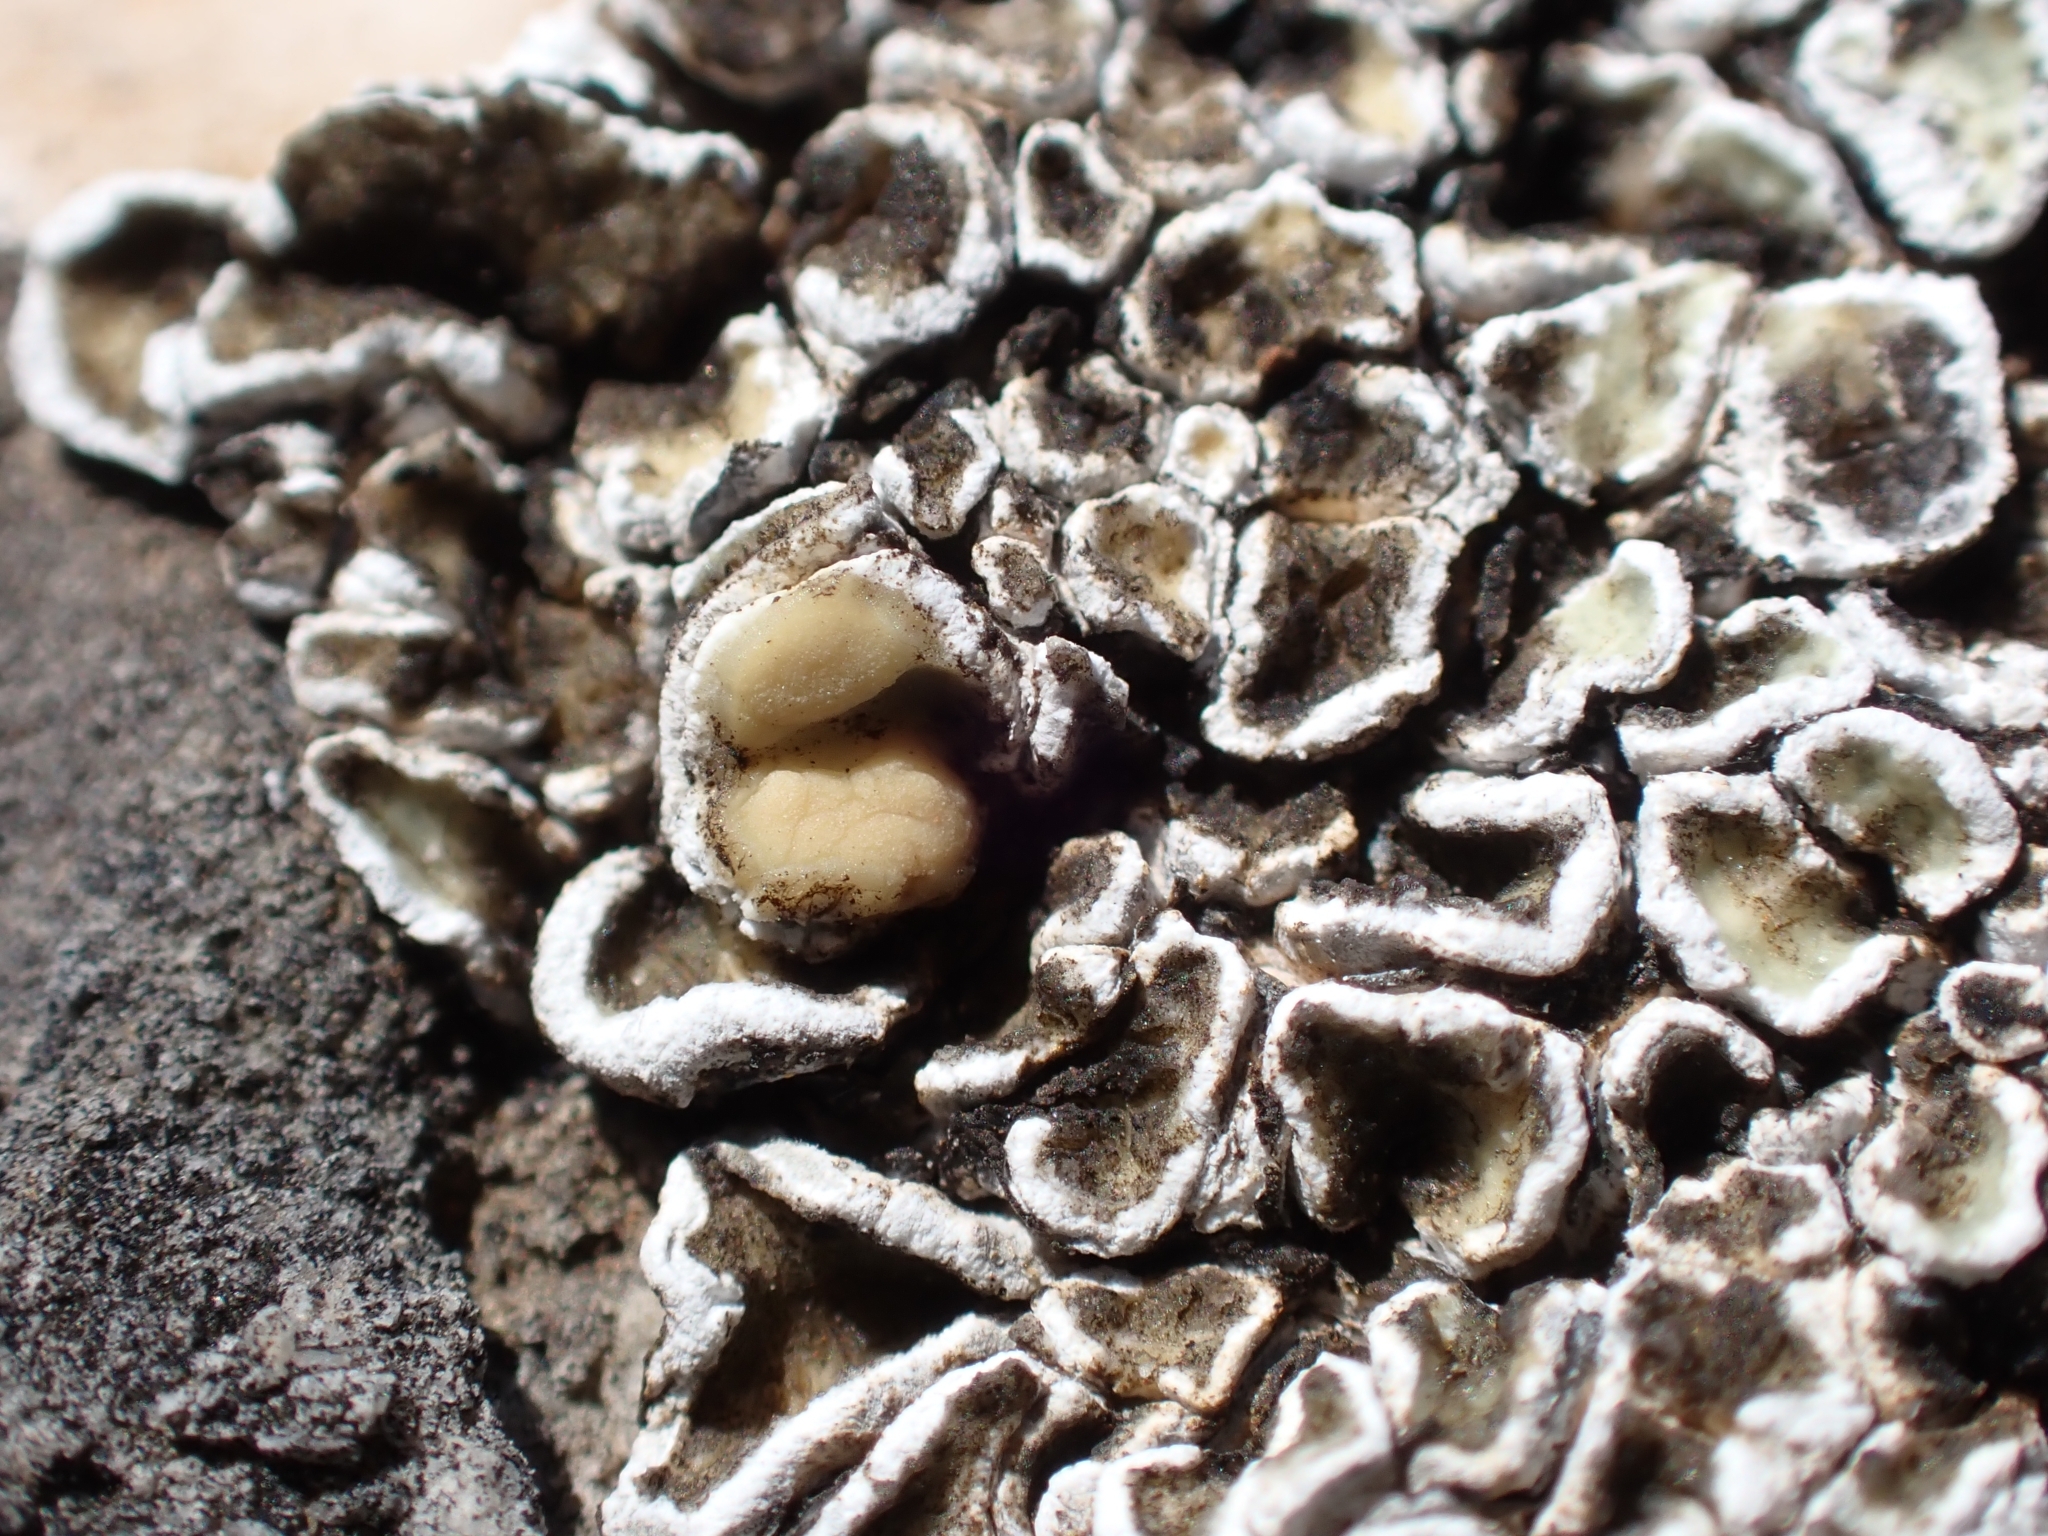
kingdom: Fungi
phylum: Ascomycota
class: Lecanoromycetes
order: Lecanorales
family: Stereocaulaceae
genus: Squamarina
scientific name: Squamarina gypsacea
